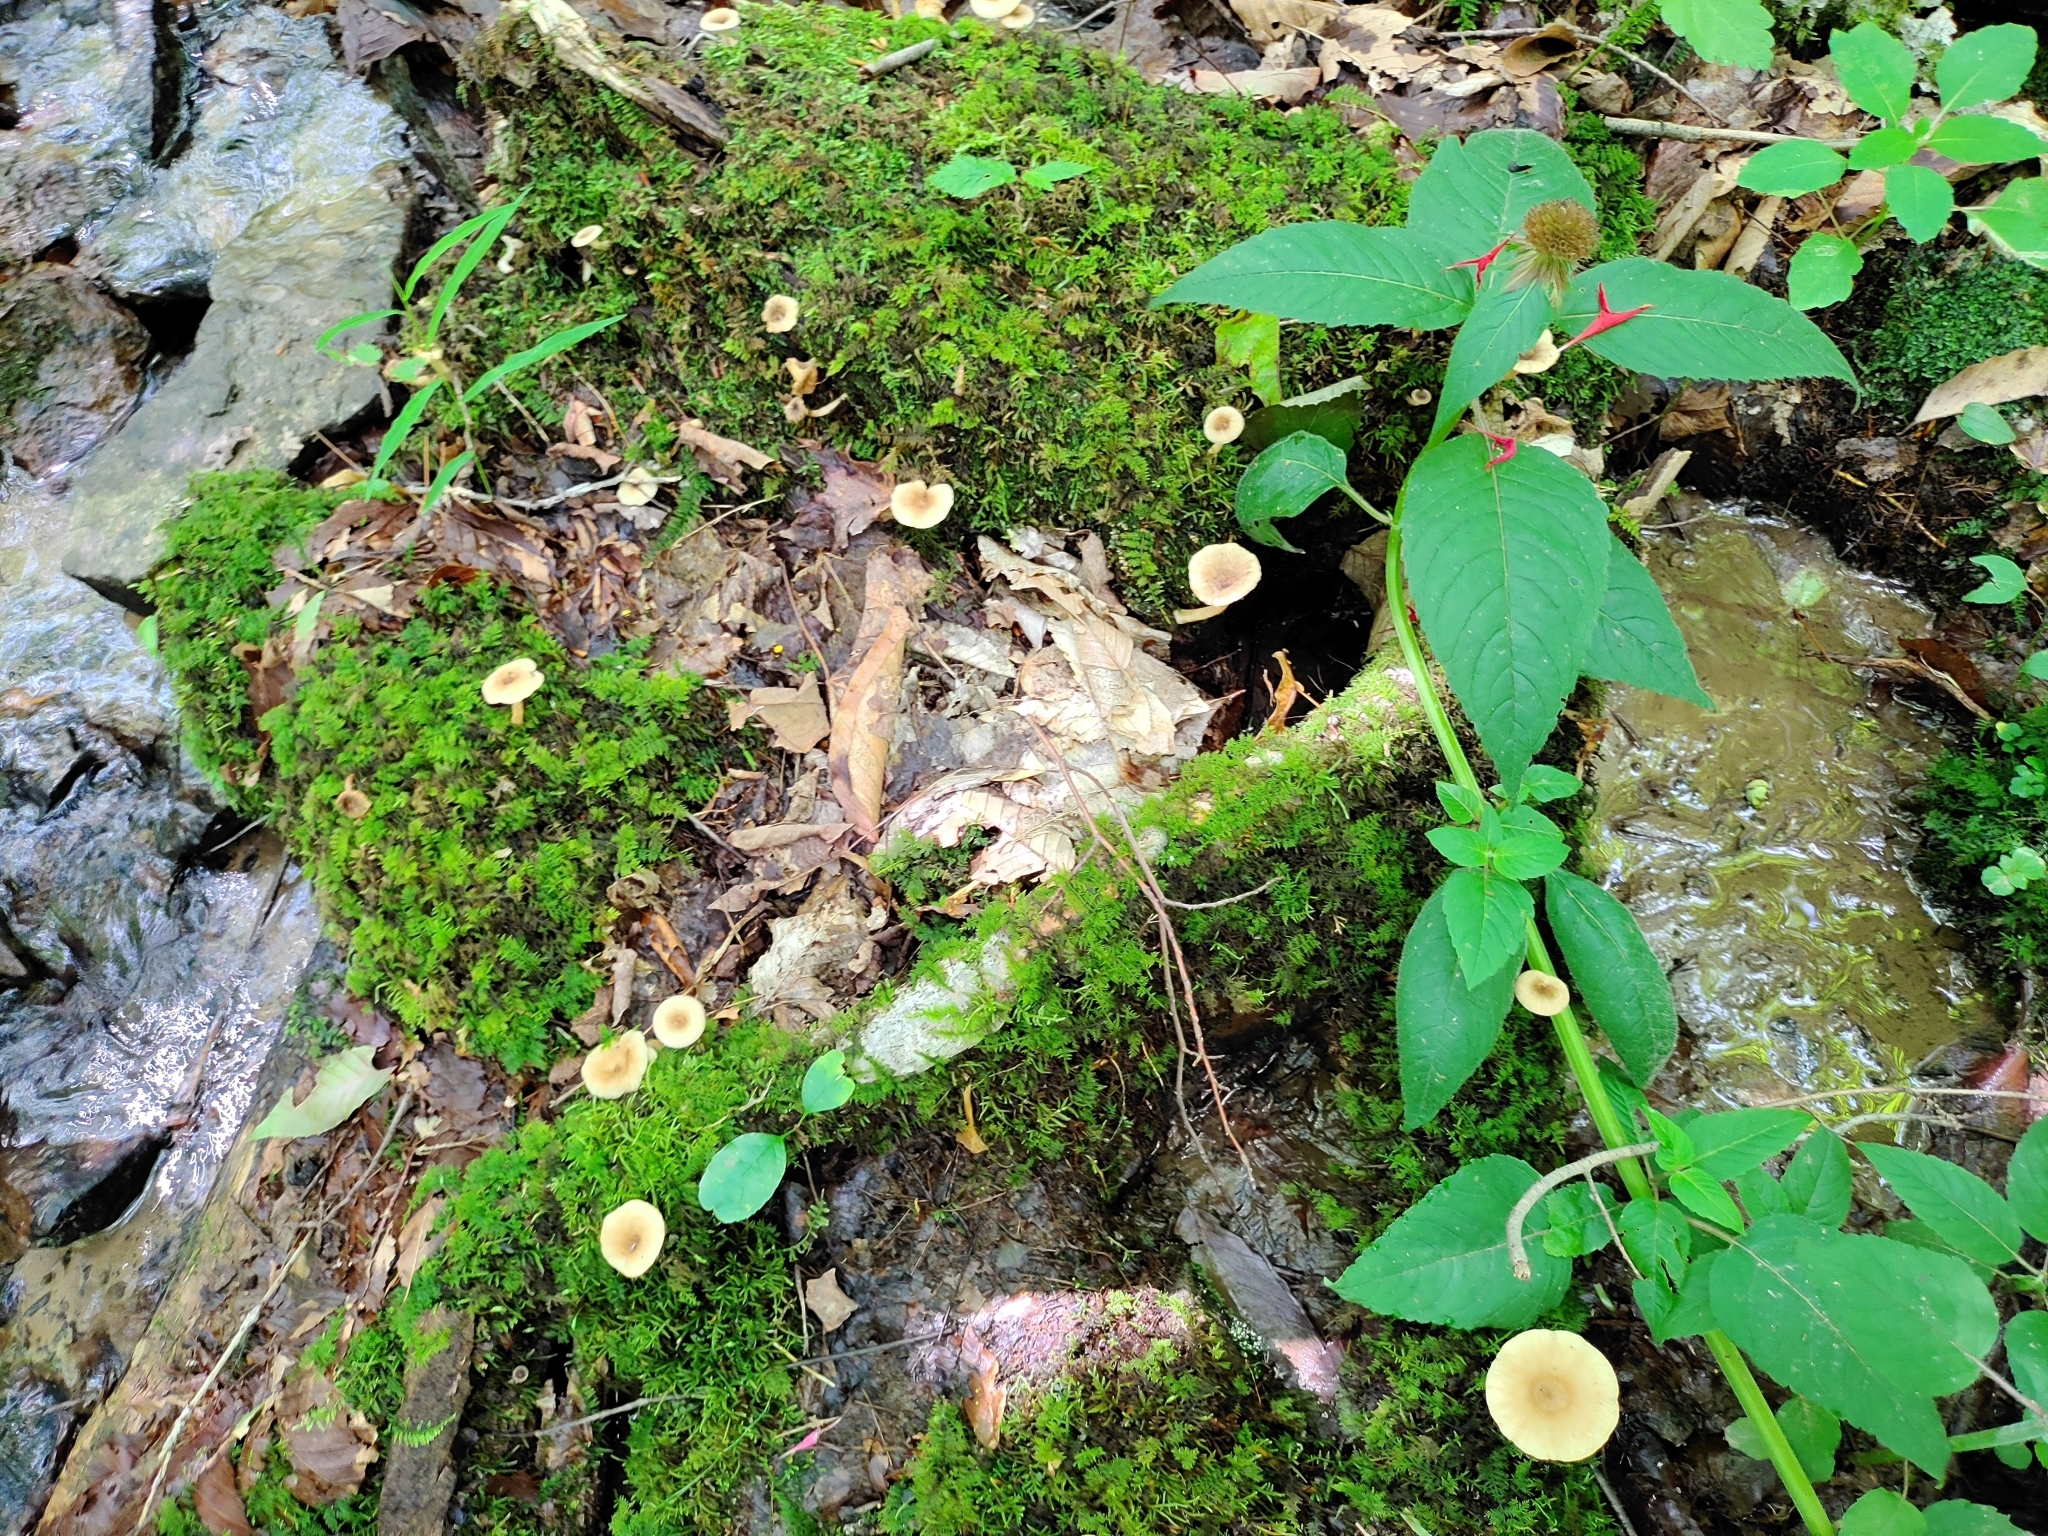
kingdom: Fungi
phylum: Basidiomycota
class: Agaricomycetes
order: Russulales
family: Russulaceae
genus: Lactarius
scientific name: Lactarius griseus
